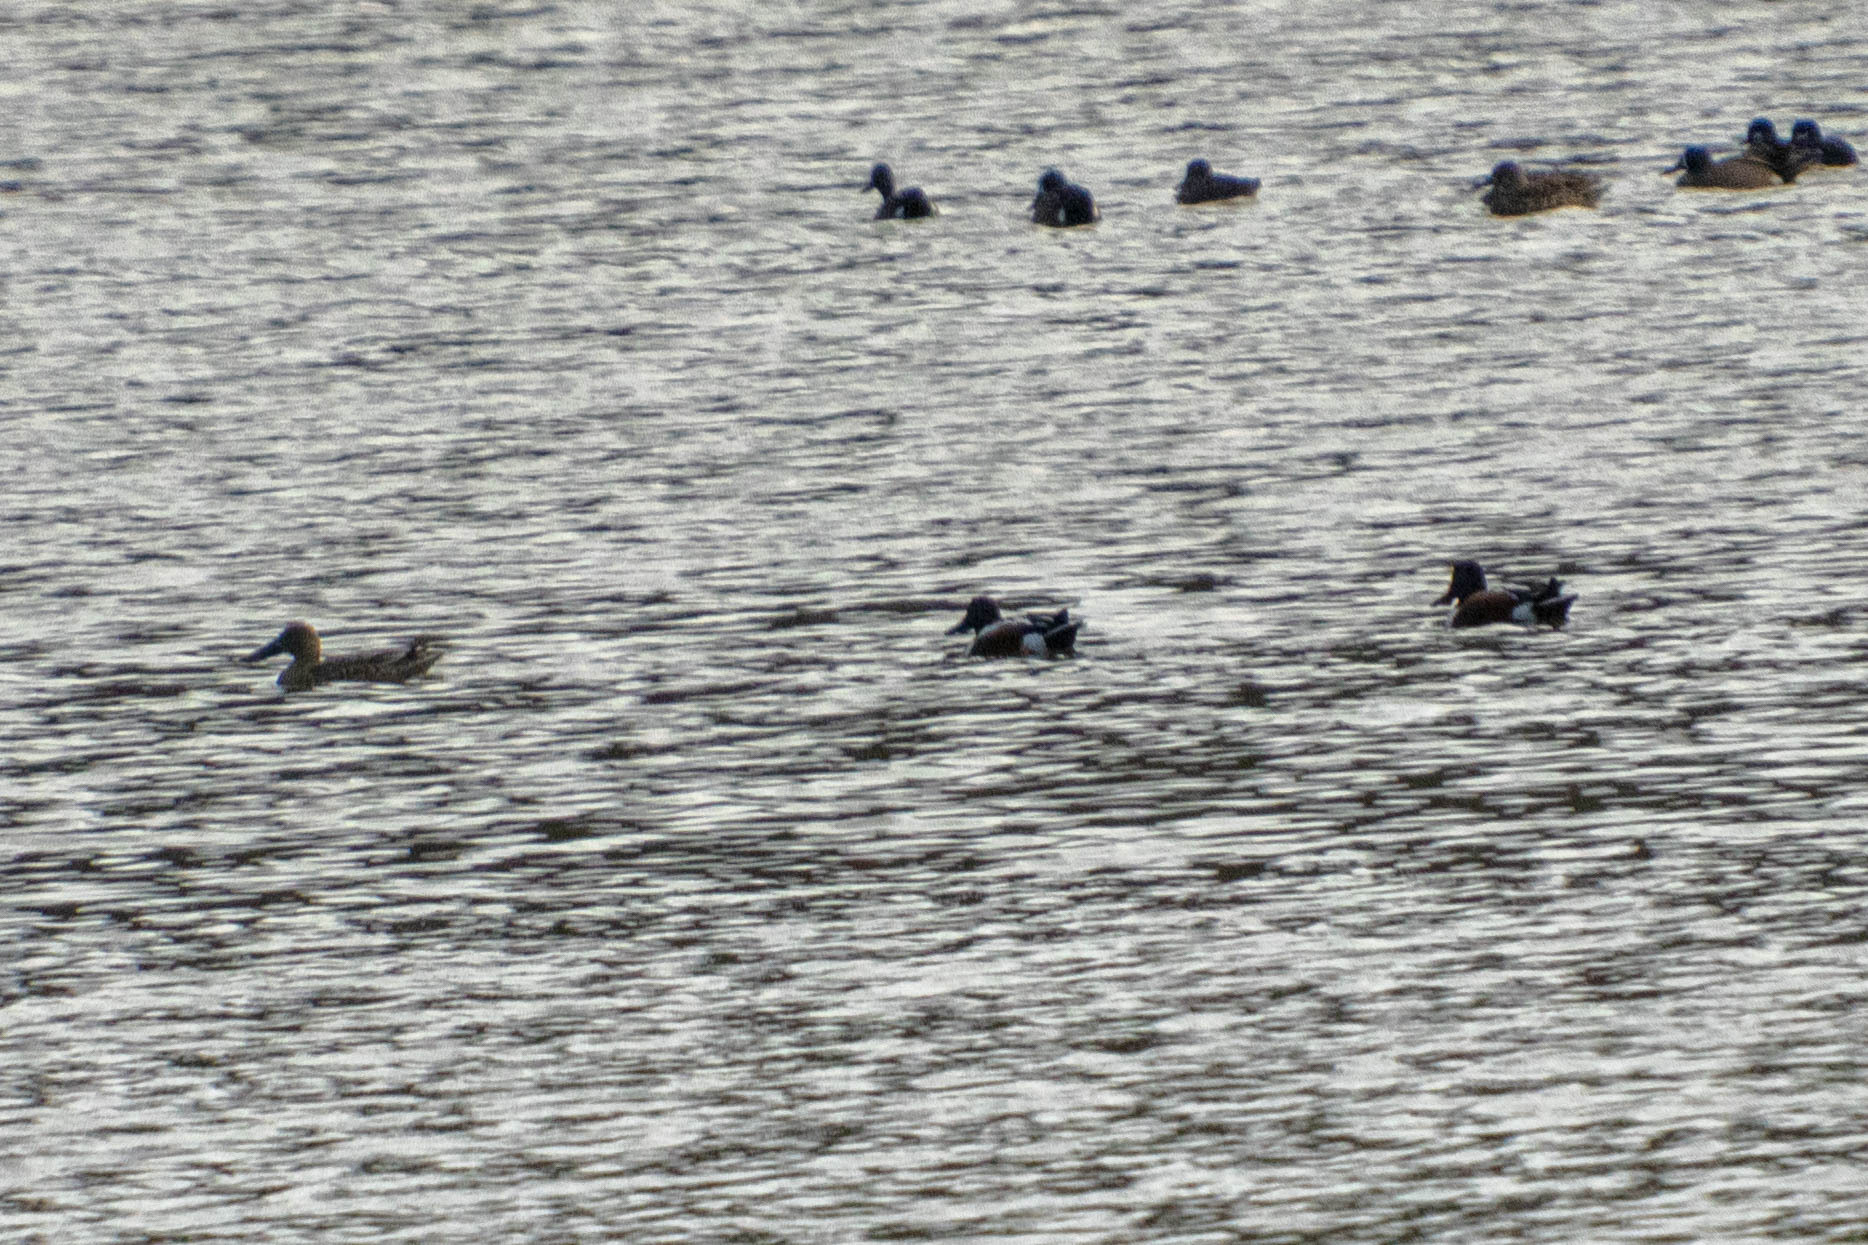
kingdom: Animalia
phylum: Chordata
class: Aves
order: Anseriformes
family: Anatidae
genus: Spatula
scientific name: Spatula clypeata
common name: Northern shoveler
